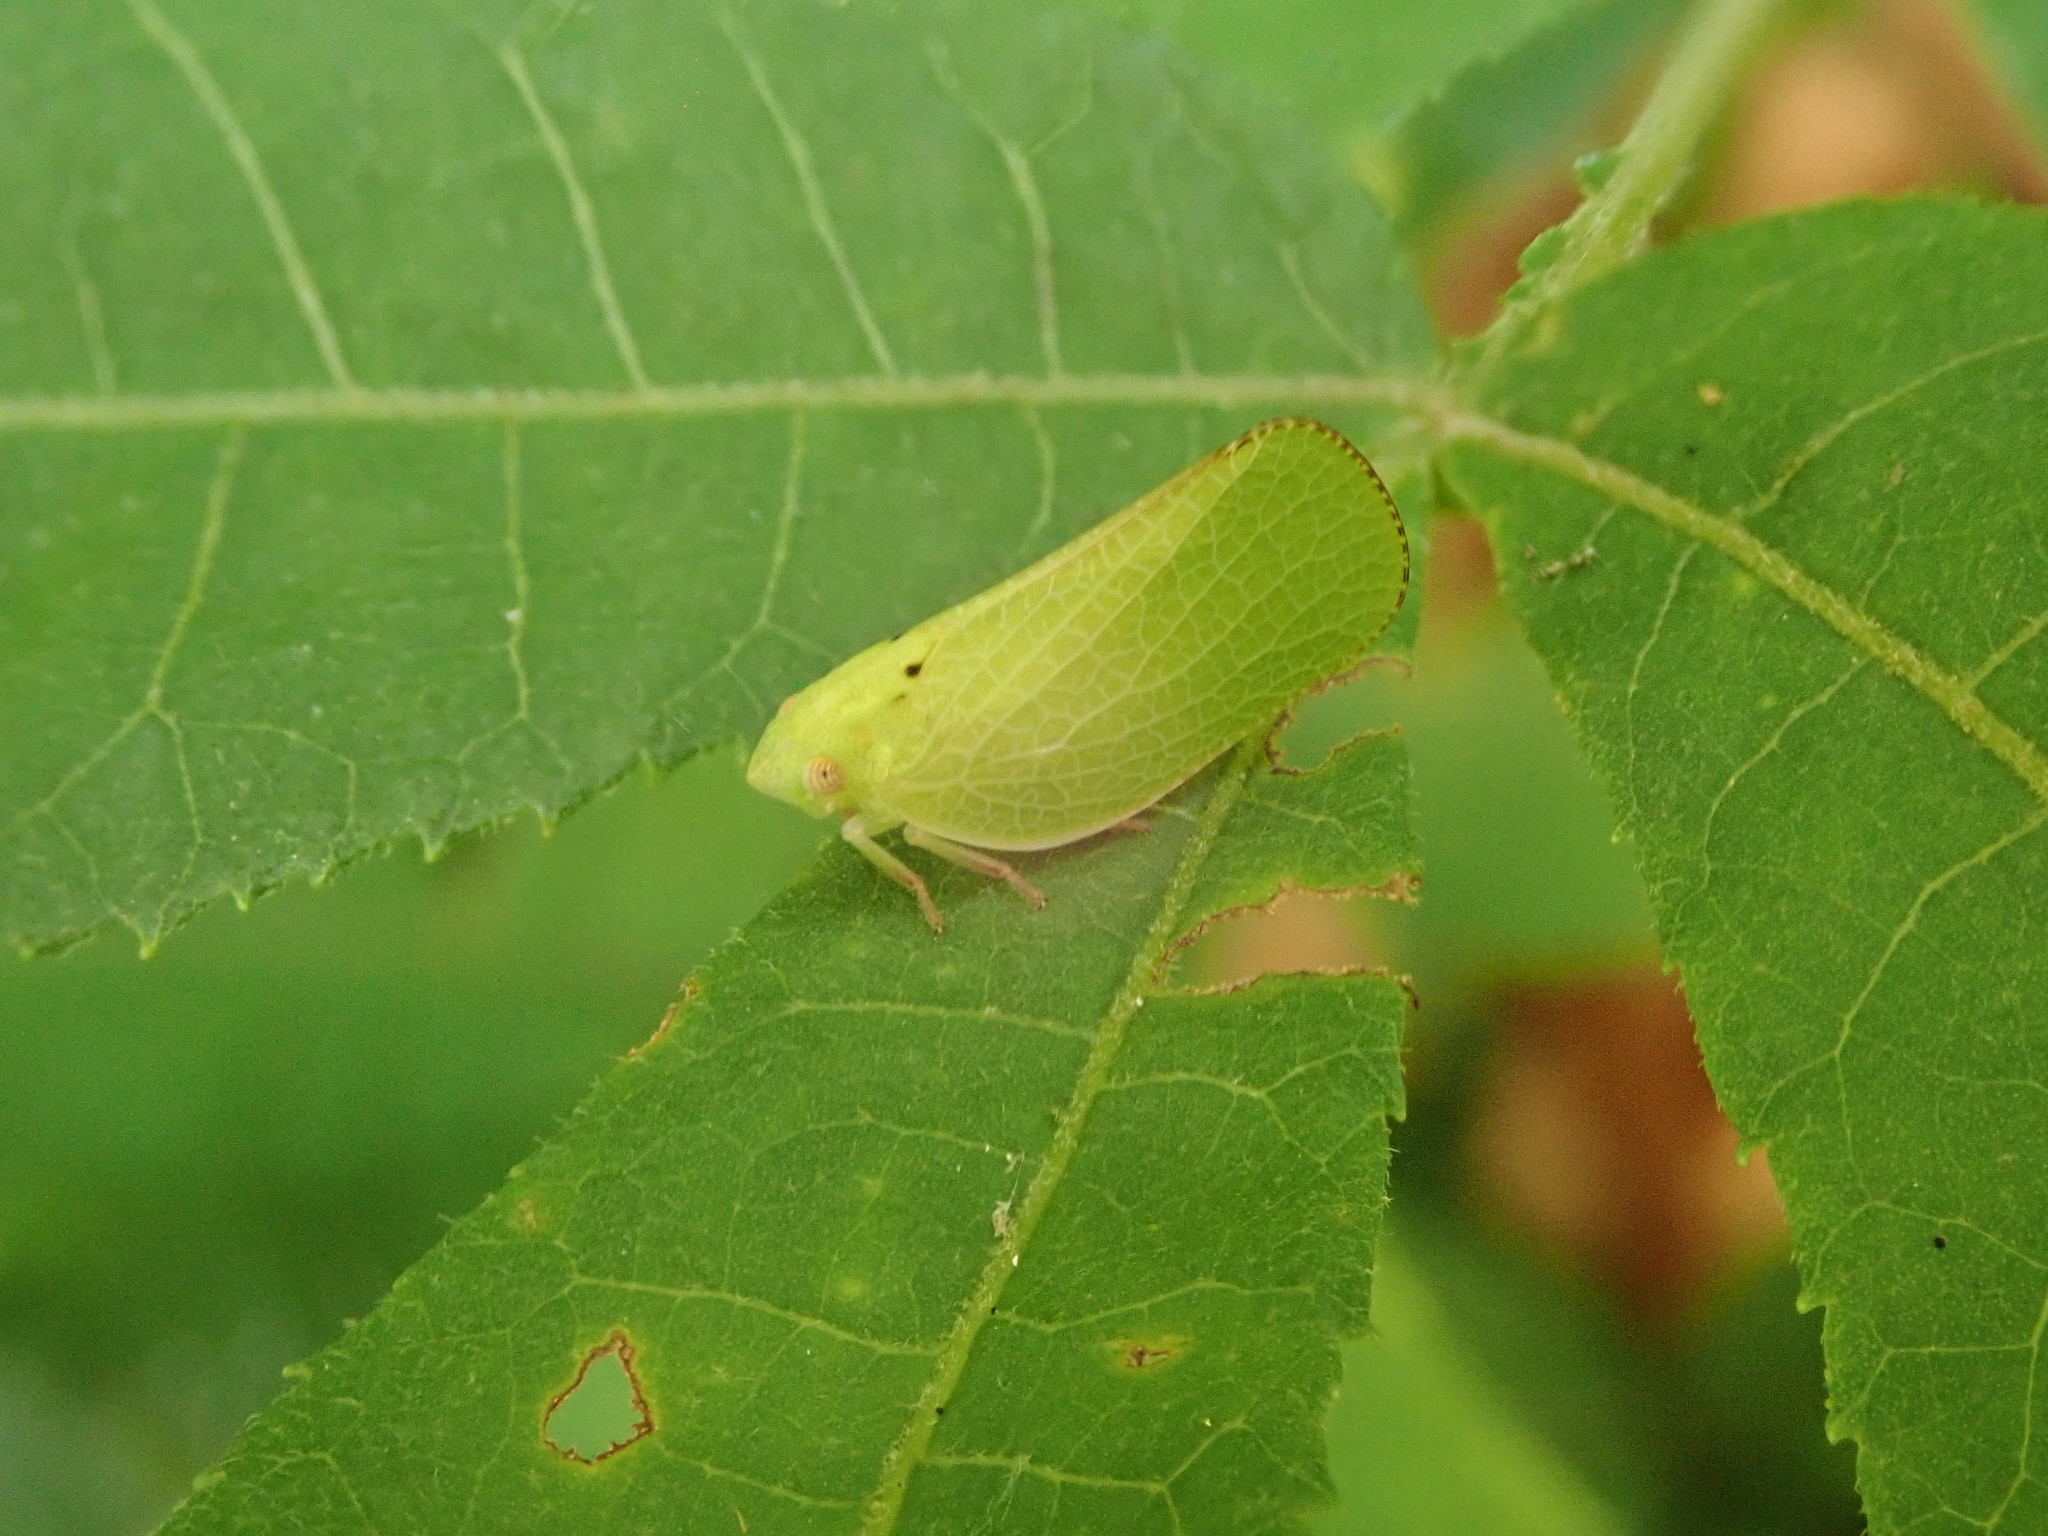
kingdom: Animalia
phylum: Arthropoda
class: Insecta
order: Hemiptera
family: Acanaloniidae
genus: Acanalonia
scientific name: Acanalonia conica
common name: Green cone-headed planthopper
